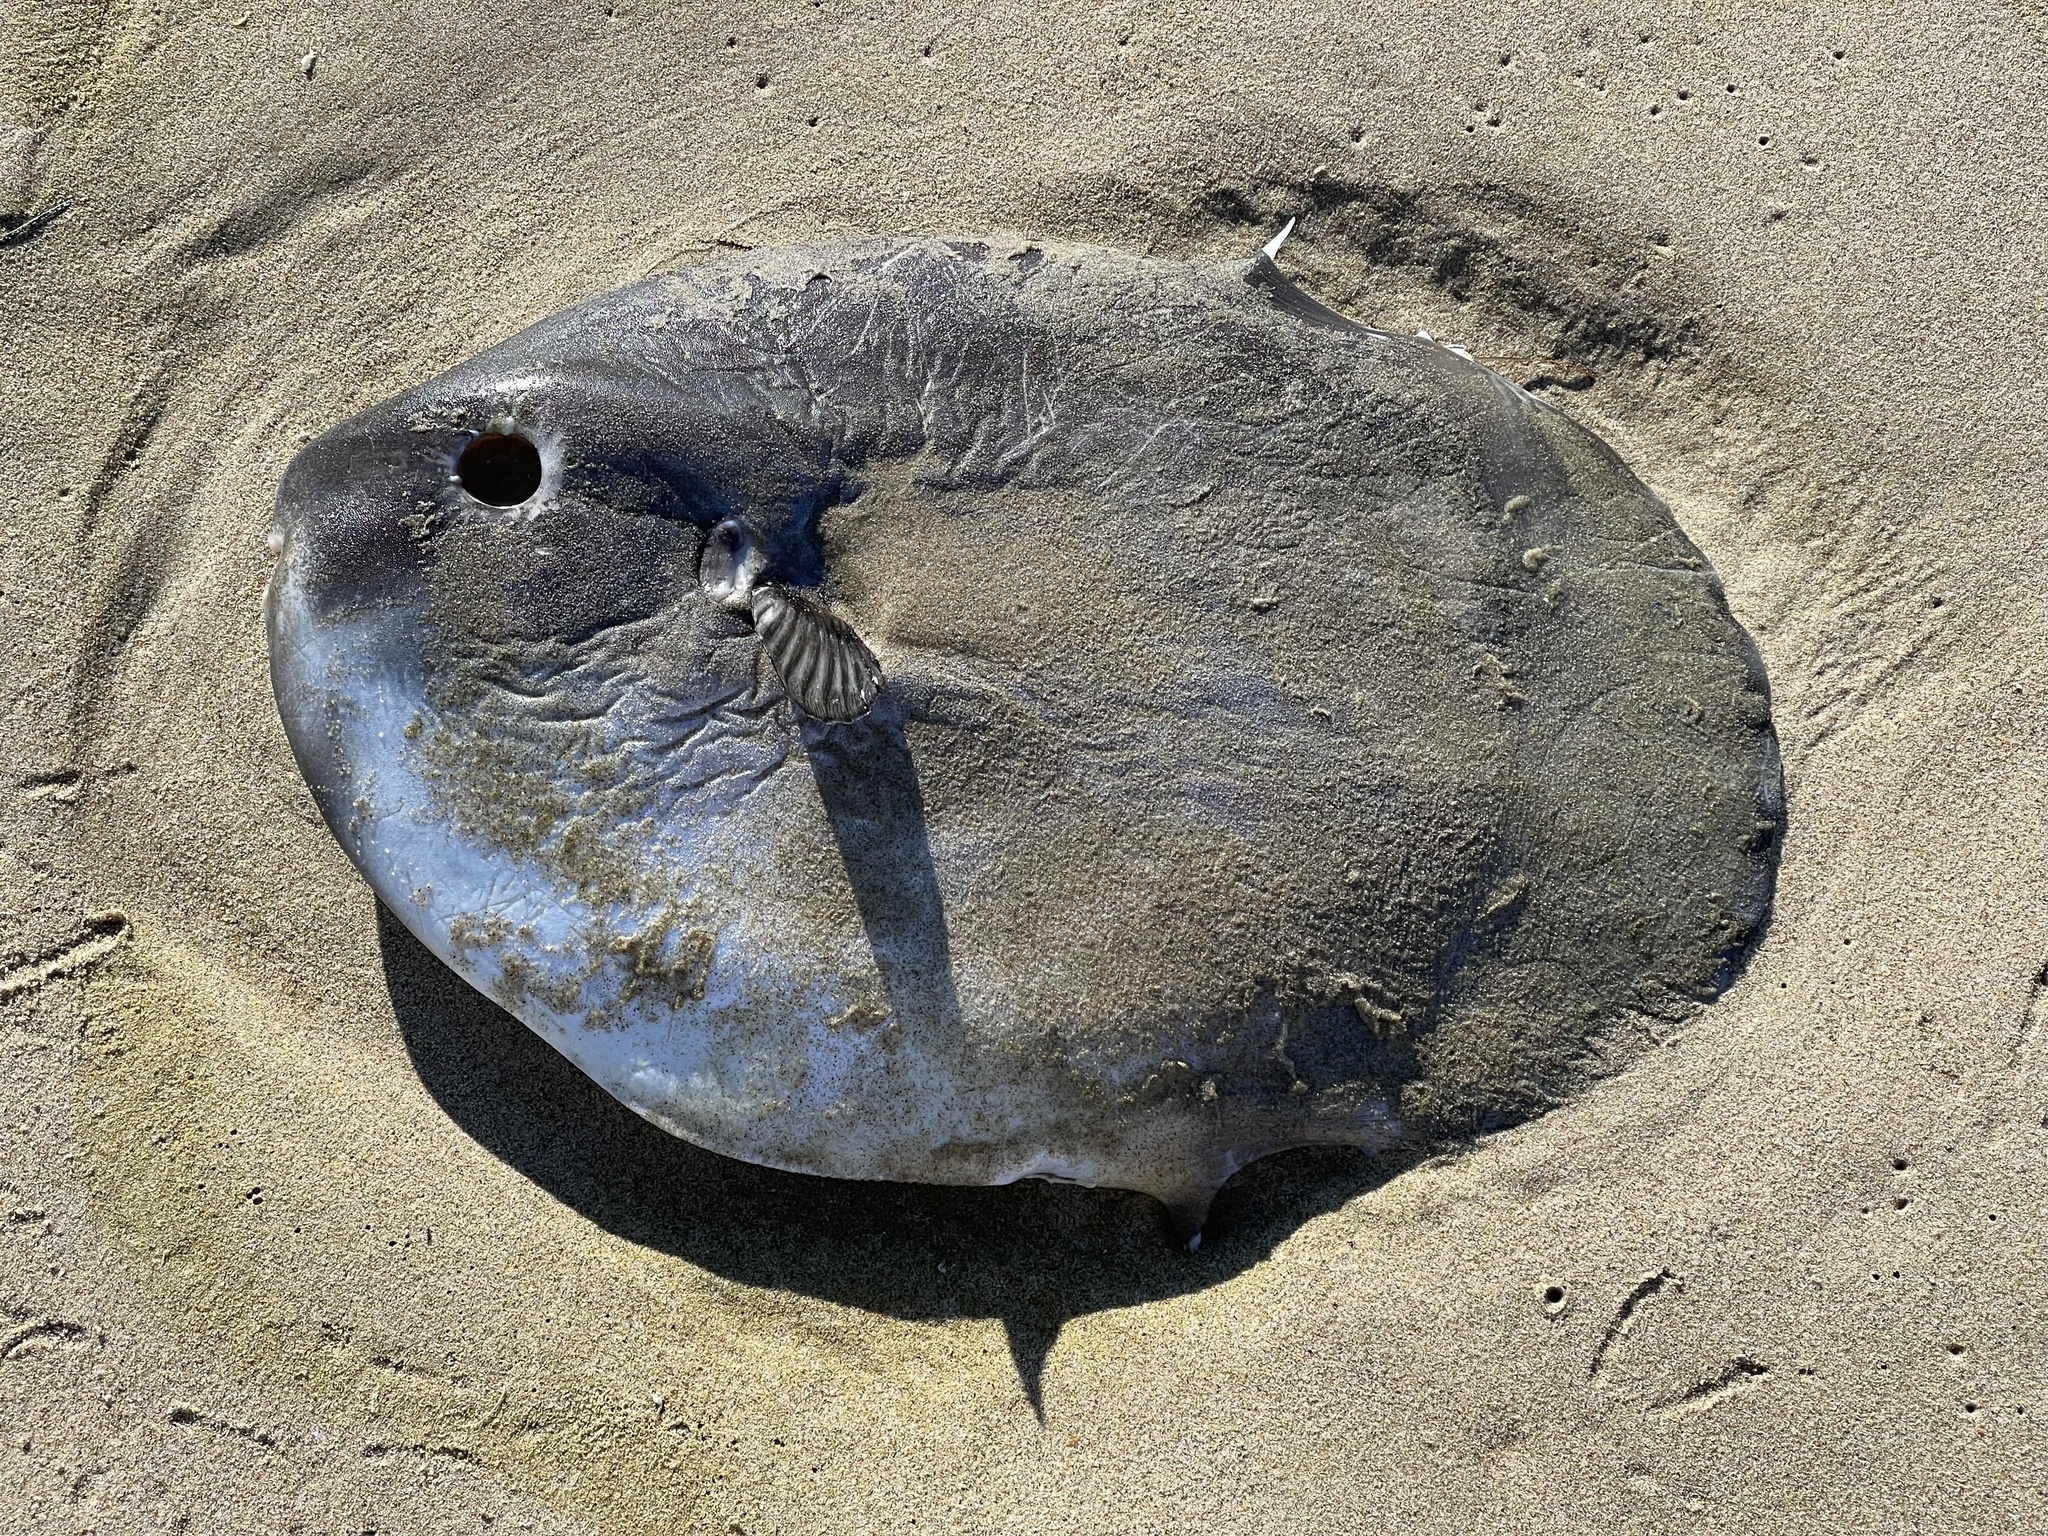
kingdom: Animalia
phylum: Chordata
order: Tetraodontiformes
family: Molidae
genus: Mola
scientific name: Mola mola
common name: Ocean sunfish
